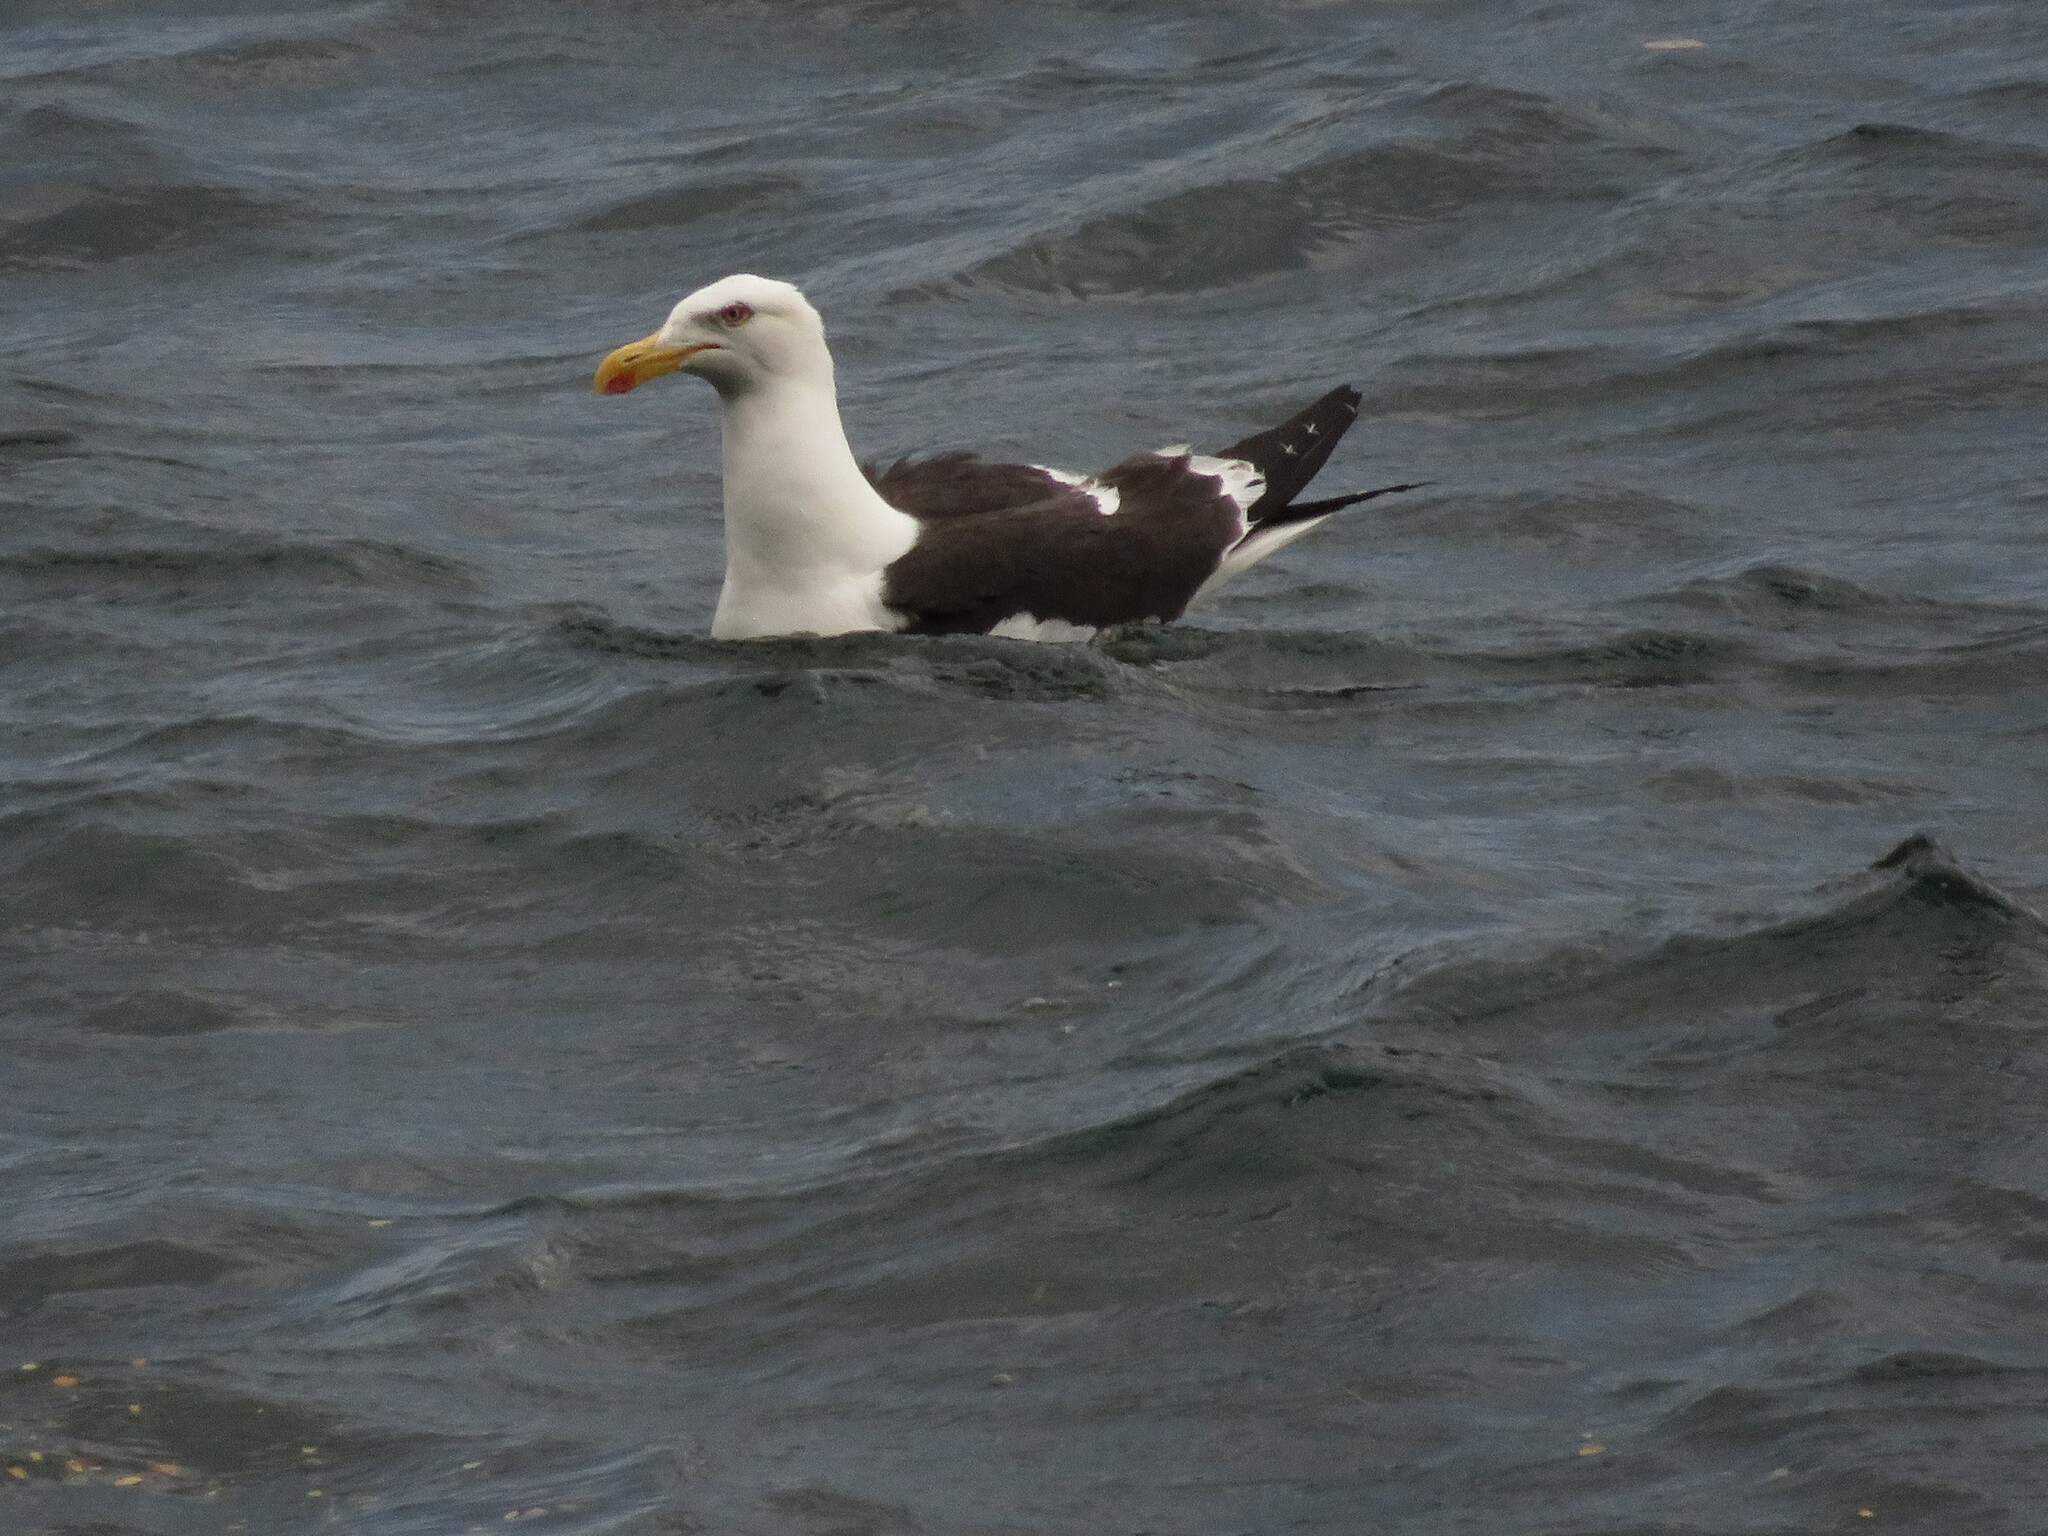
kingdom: Animalia
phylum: Chordata
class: Aves
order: Charadriiformes
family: Laridae
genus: Larus
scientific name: Larus dominicanus
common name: Kelp gull
